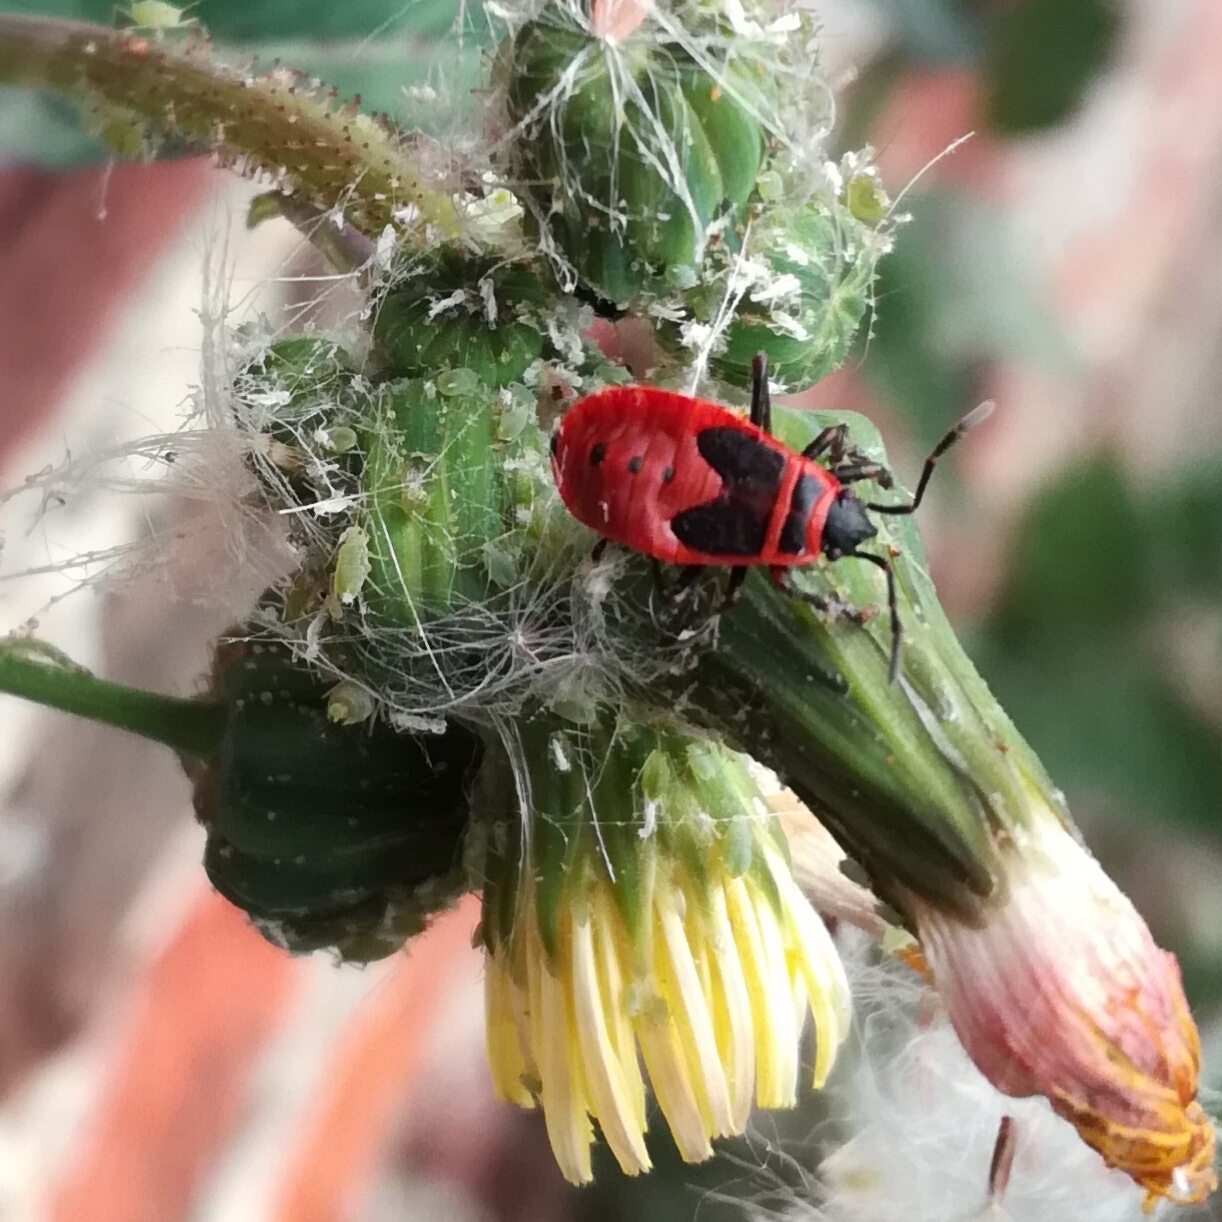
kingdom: Animalia
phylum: Arthropoda
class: Insecta
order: Hemiptera
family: Pyrrhocoridae
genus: Pyrrhocoris
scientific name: Pyrrhocoris apterus
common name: Firebug
